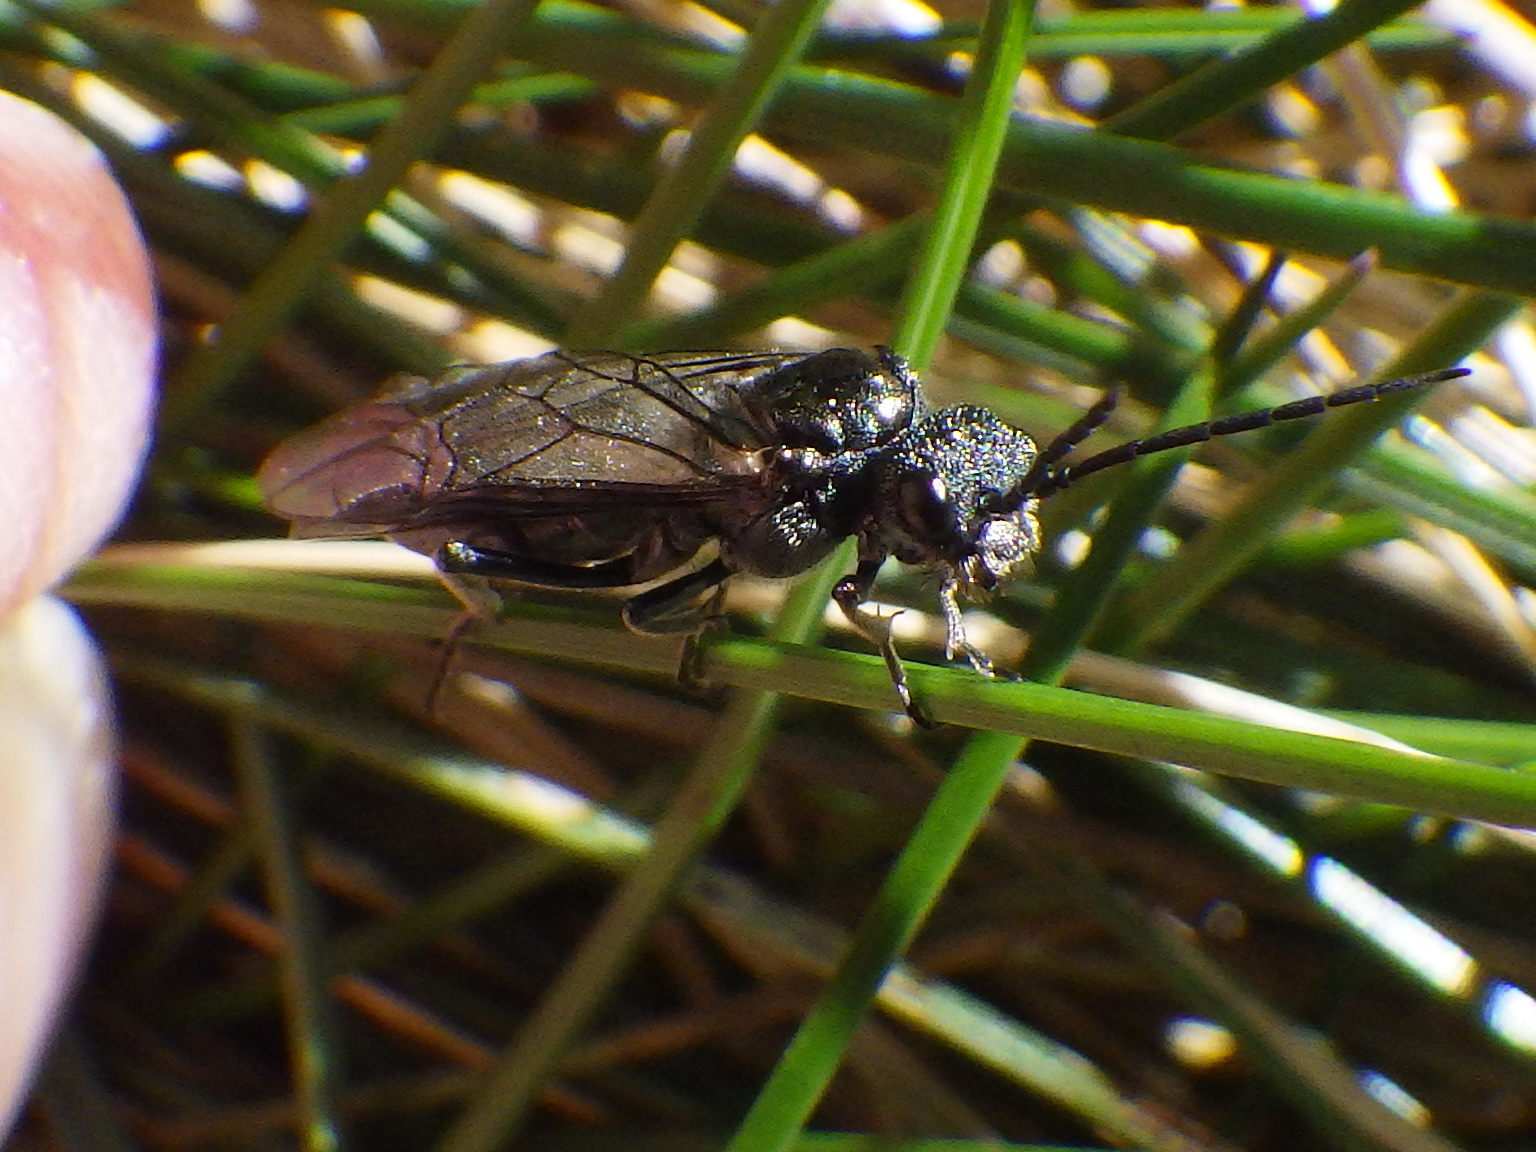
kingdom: Animalia
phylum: Arthropoda
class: Insecta
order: Hymenoptera
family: Tenthredinidae
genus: Dolerus
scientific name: Dolerus nitens
